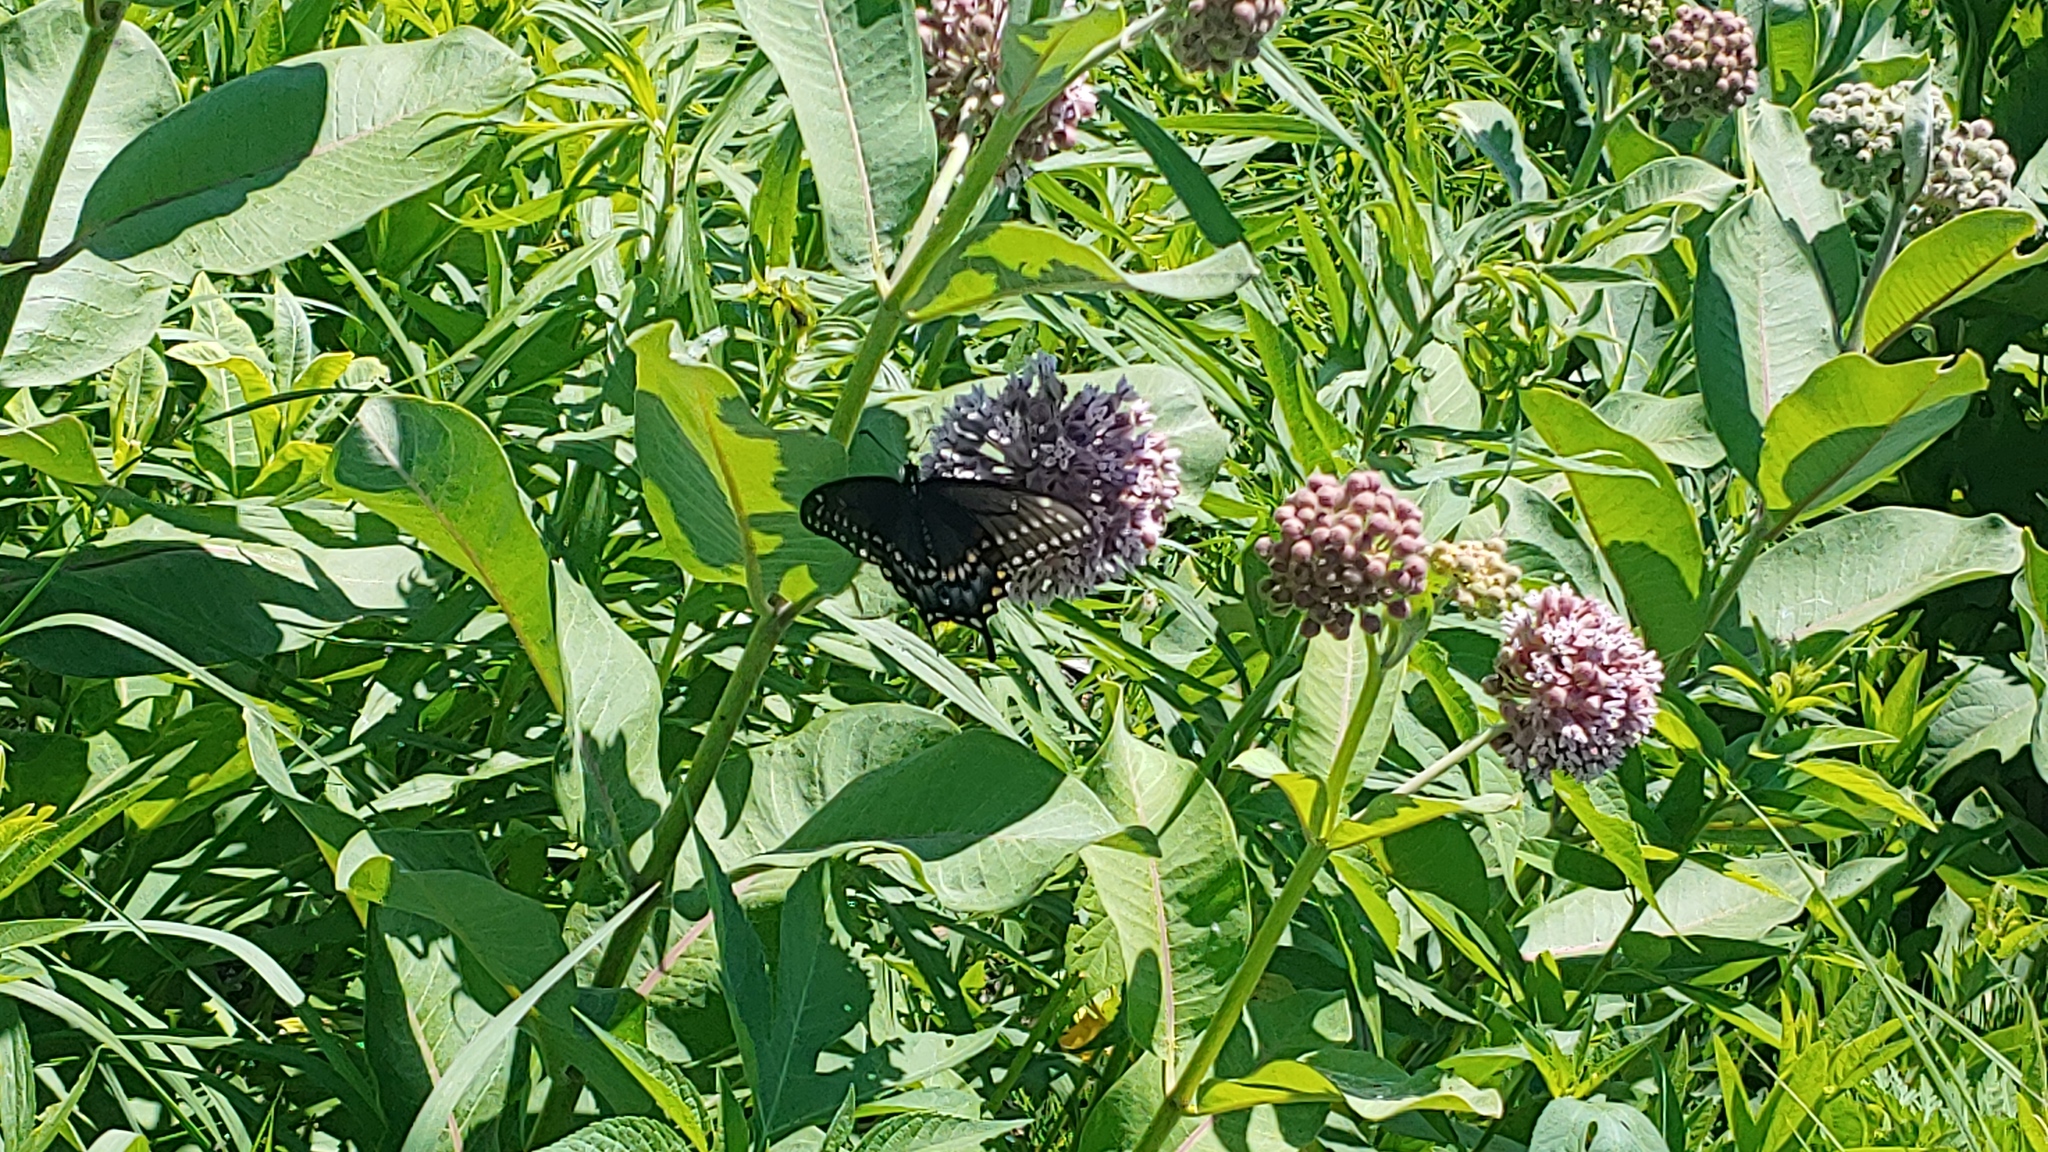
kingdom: Animalia
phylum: Arthropoda
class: Insecta
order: Lepidoptera
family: Papilionidae
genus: Papilio
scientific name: Papilio polyxenes
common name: Black swallowtail
